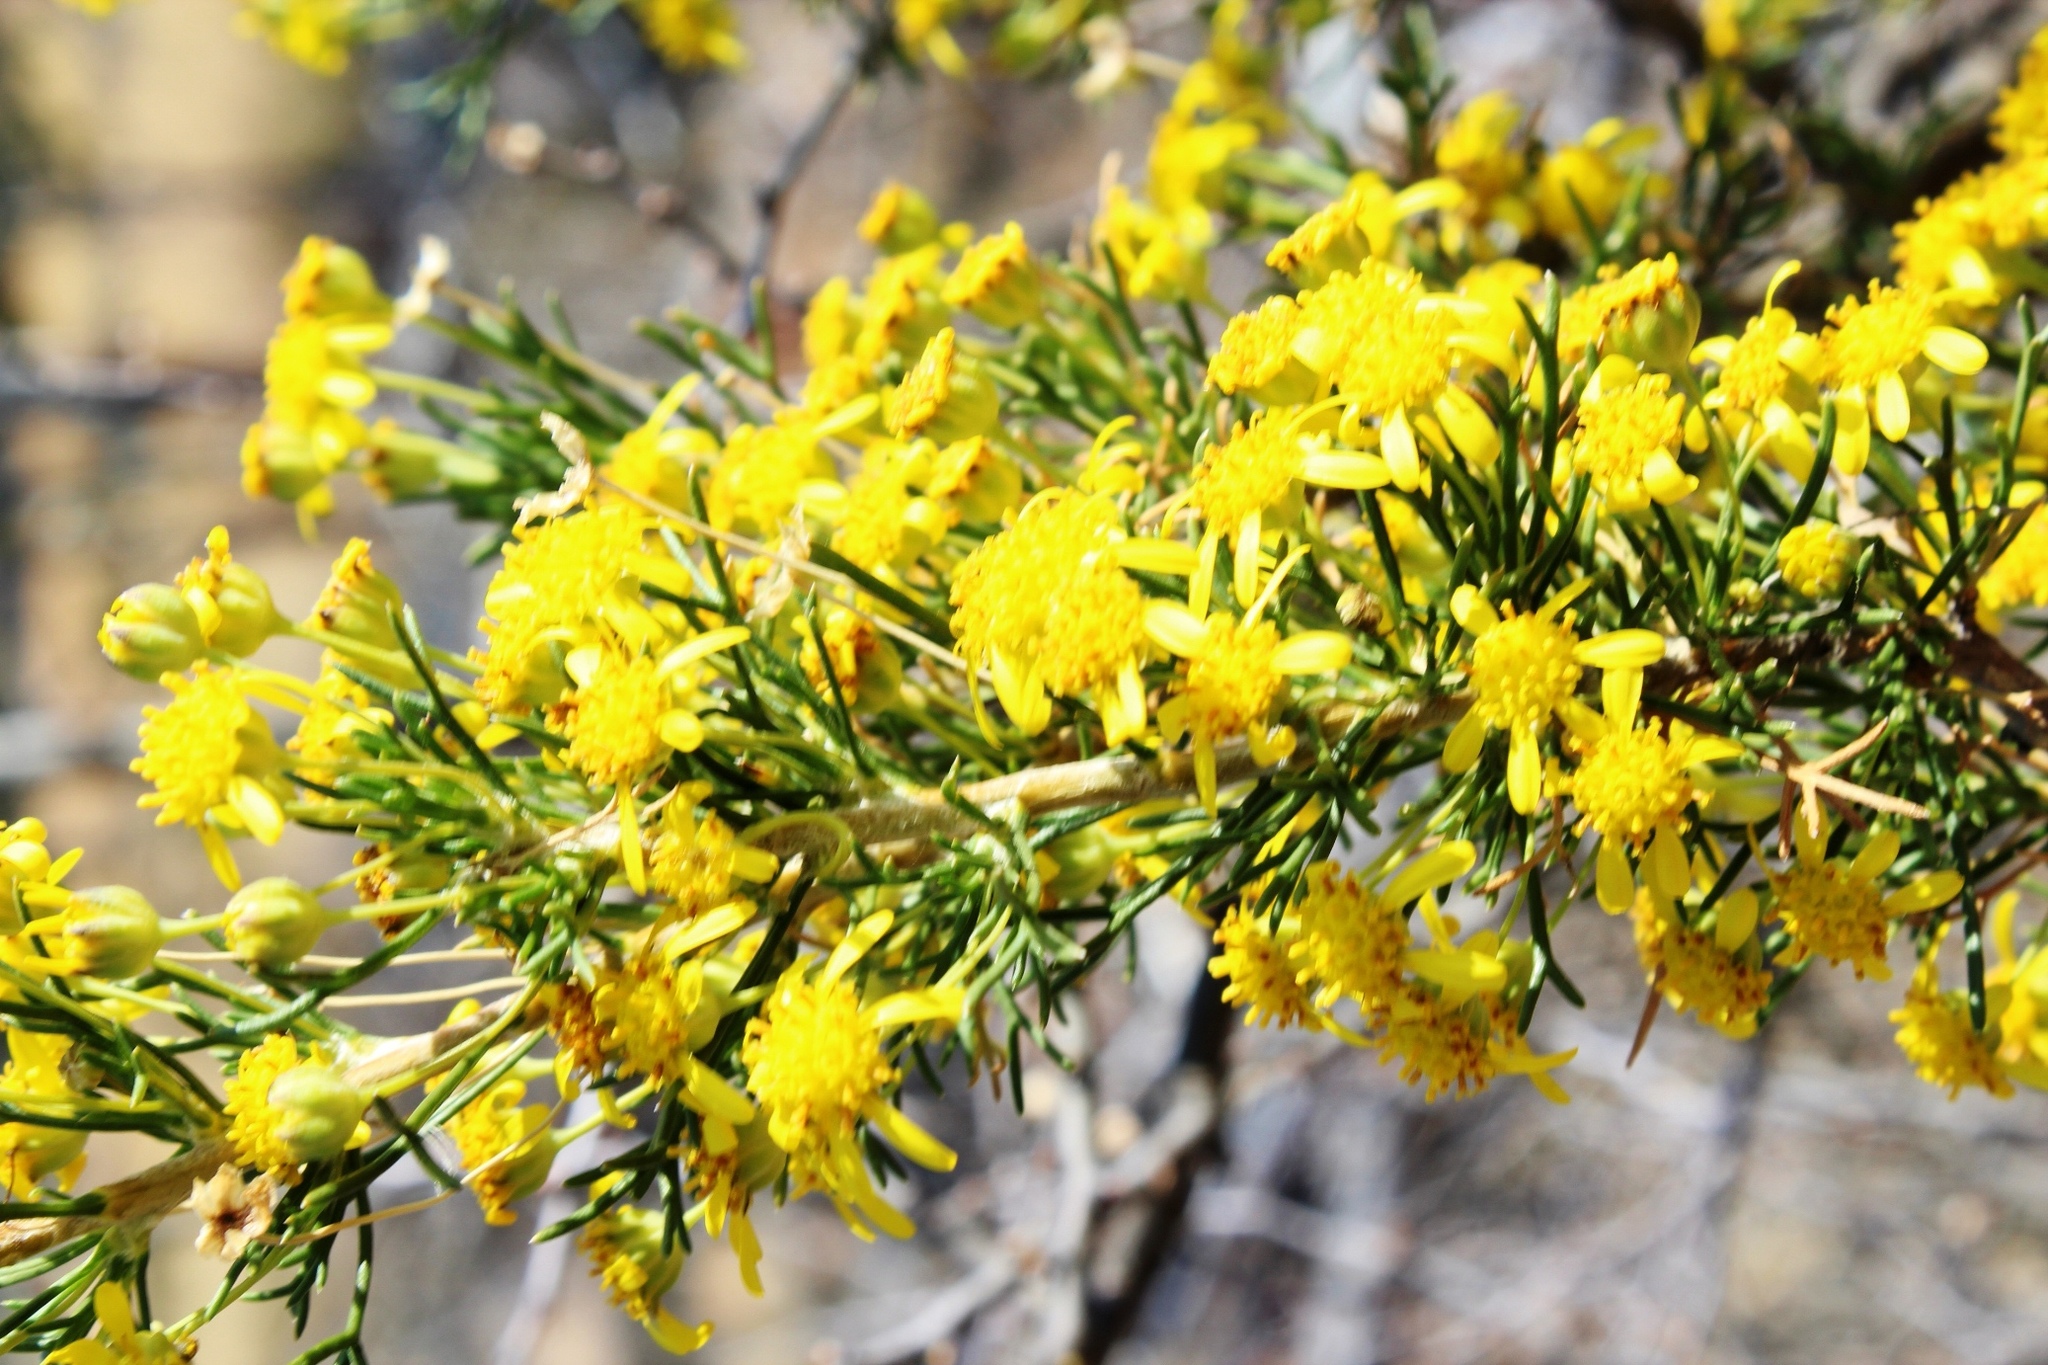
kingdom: Plantae
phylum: Tracheophyta
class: Magnoliopsida
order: Asterales
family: Asteraceae
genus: Euryops
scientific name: Euryops subcarnosus
